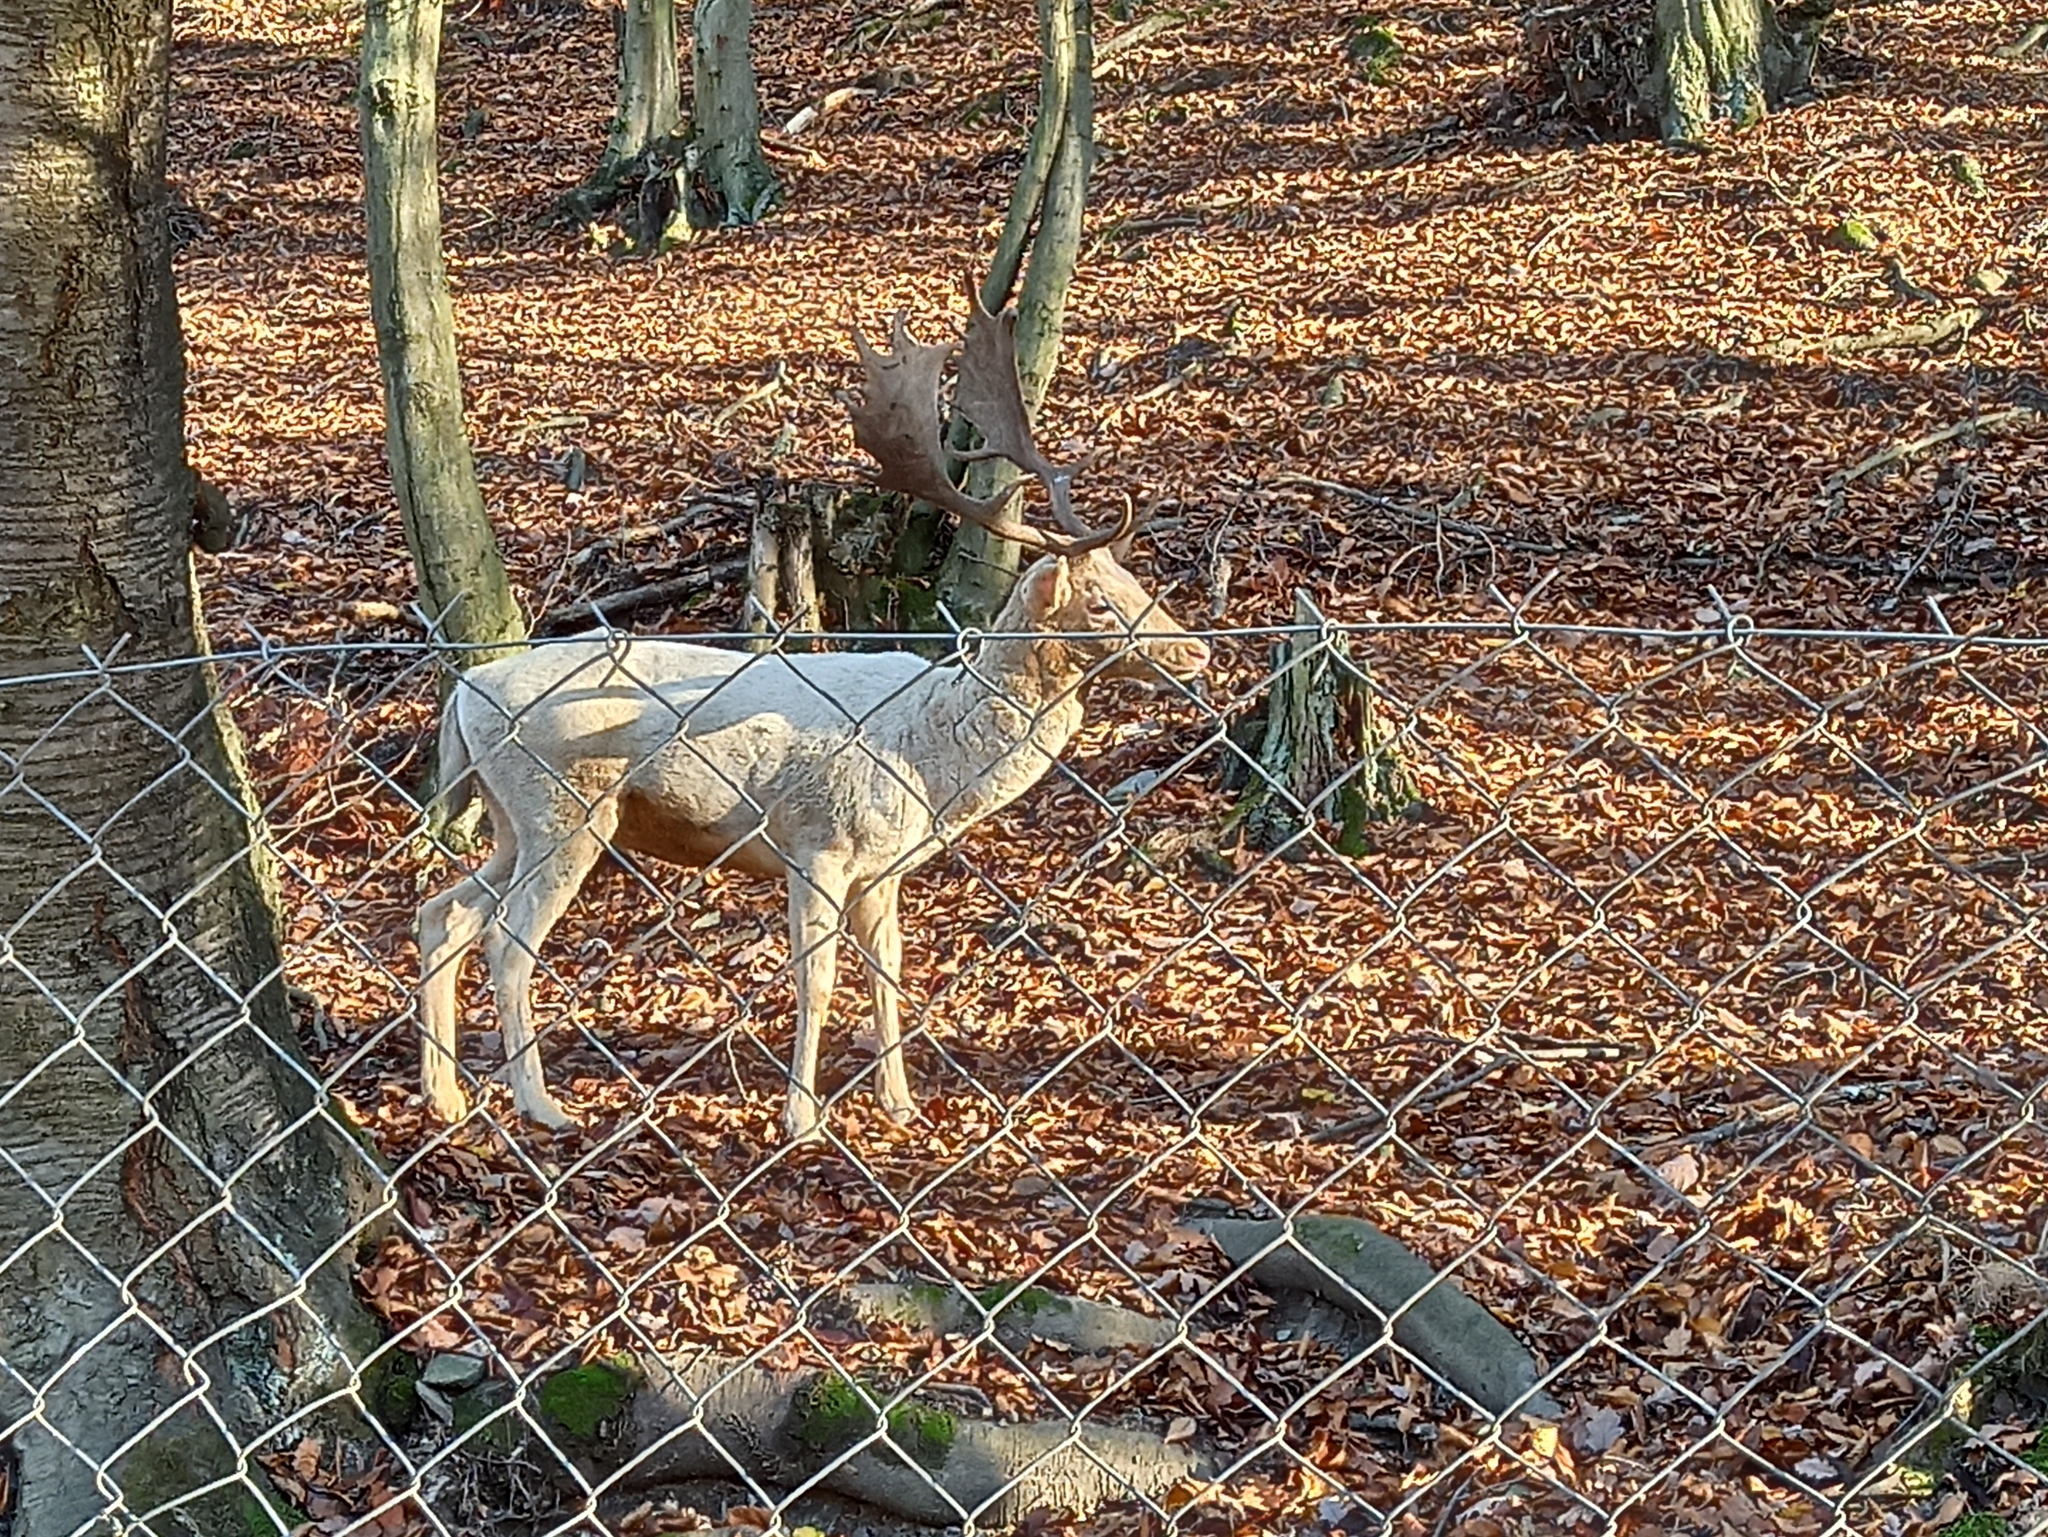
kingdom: Animalia
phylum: Chordata
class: Mammalia
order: Artiodactyla
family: Cervidae
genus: Dama
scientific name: Dama dama
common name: Fallow deer
